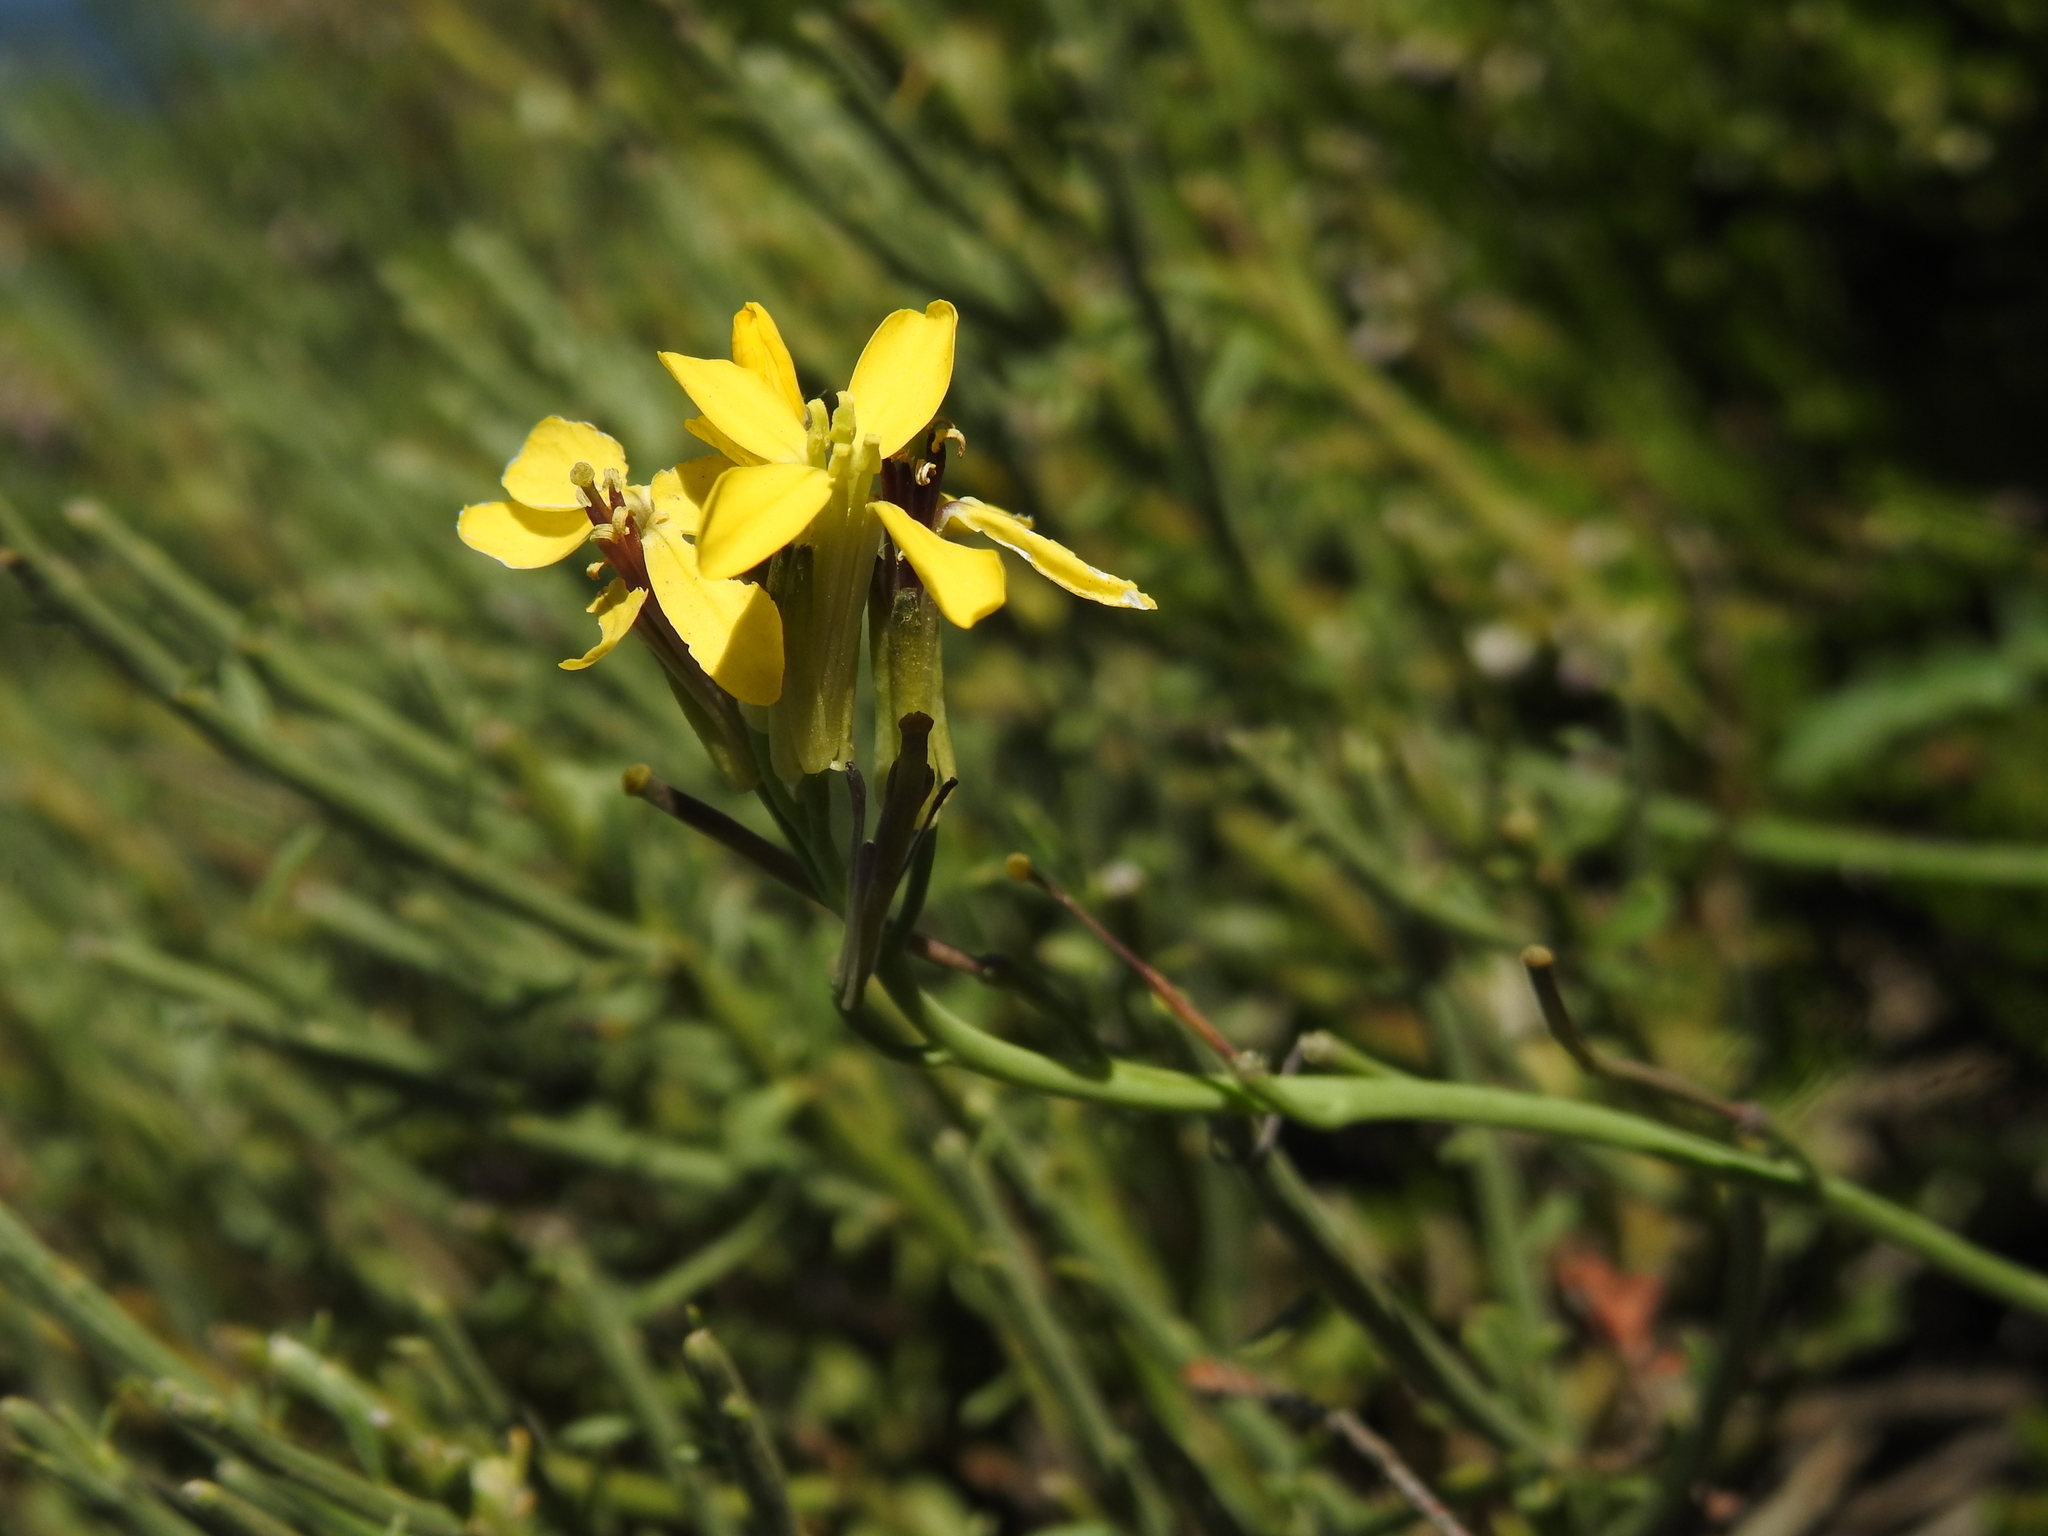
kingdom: Plantae
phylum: Tracheophyta
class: Magnoliopsida
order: Brassicales
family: Brassicaceae
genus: Coincya
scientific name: Coincya monensis
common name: Star-mustard
